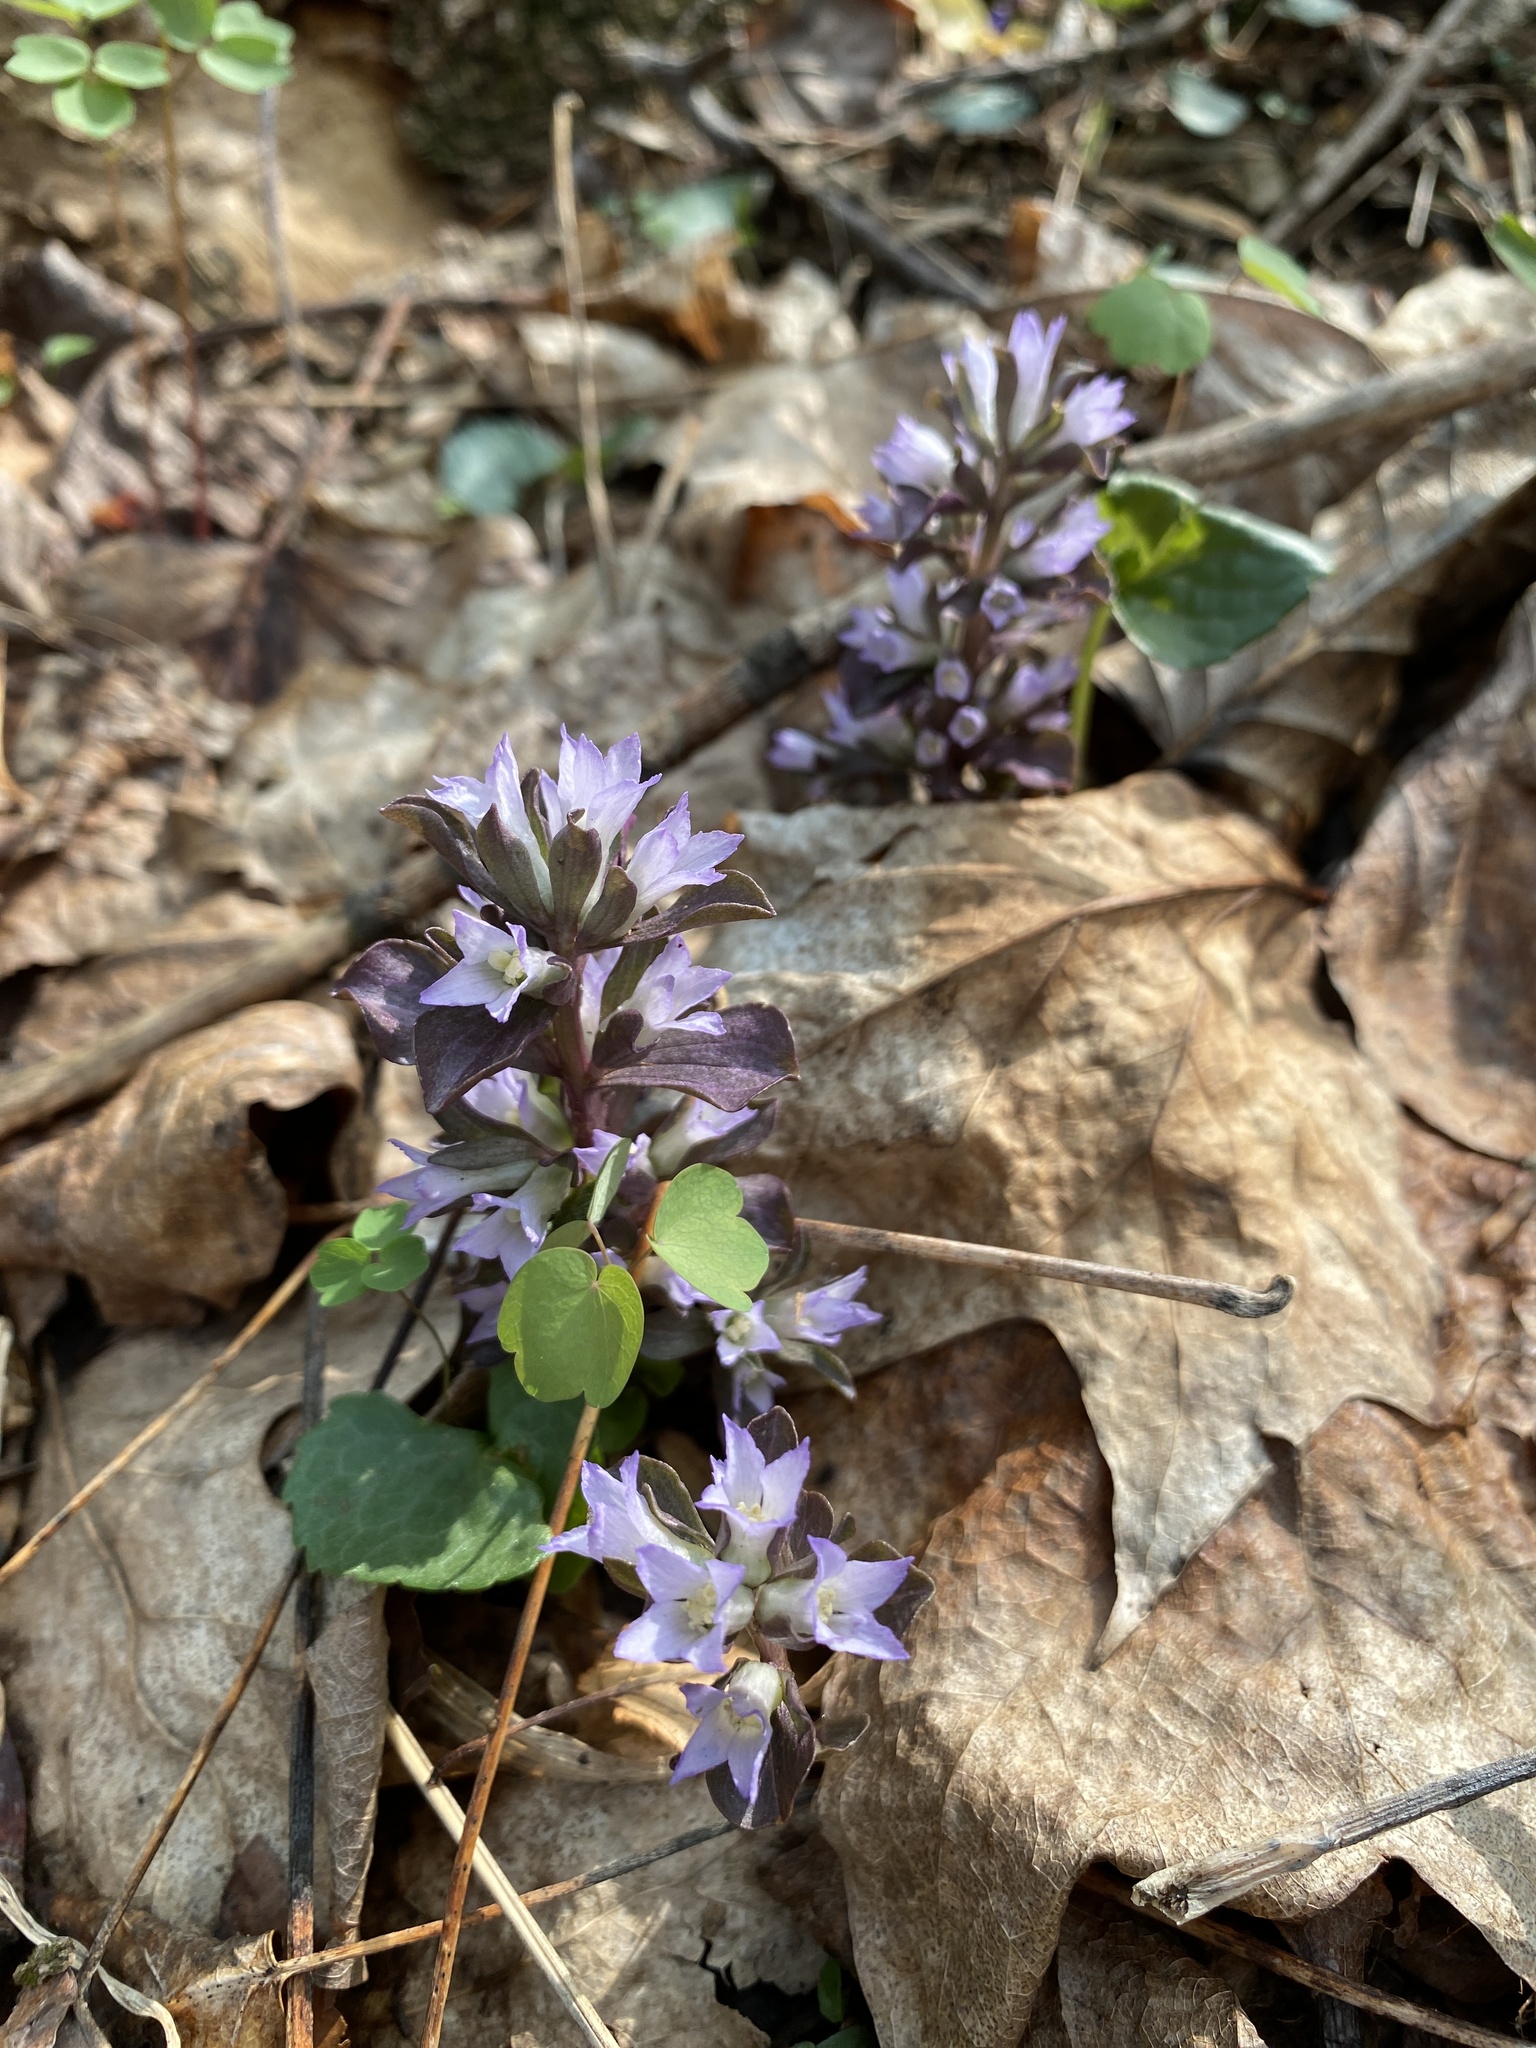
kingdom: Plantae
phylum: Tracheophyta
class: Magnoliopsida
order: Gentianales
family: Gentianaceae
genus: Obolaria
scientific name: Obolaria virginica
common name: Pennywort
